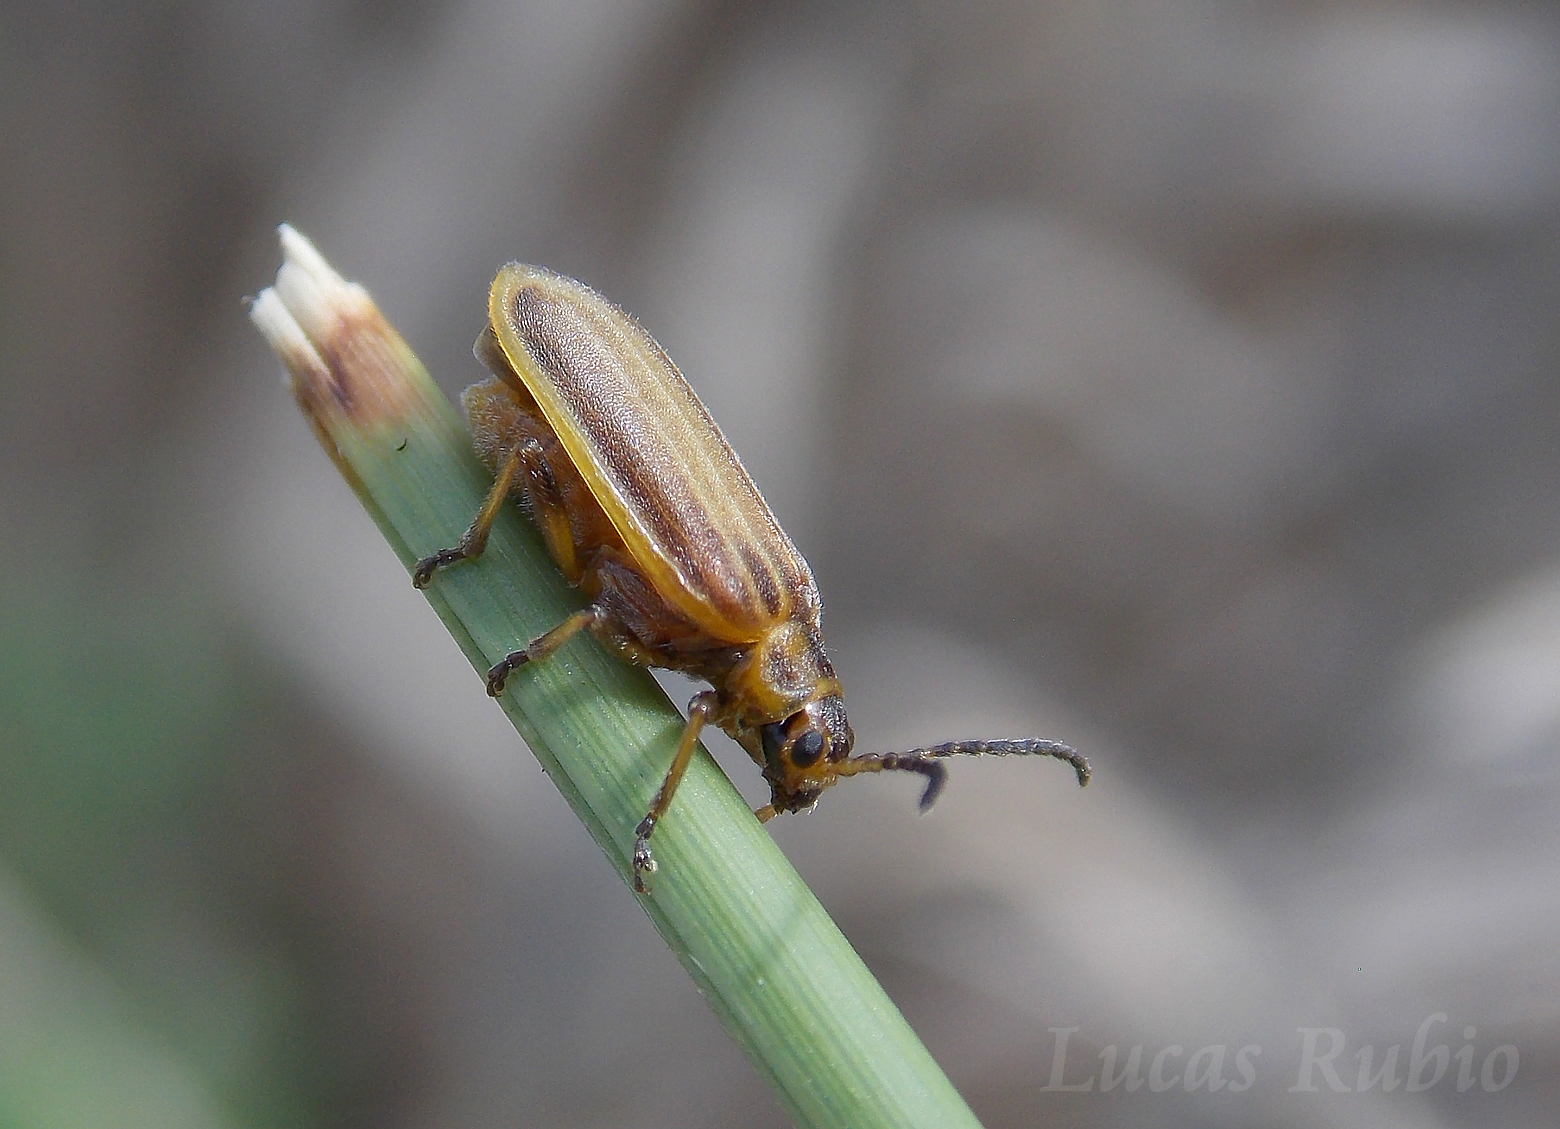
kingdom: Animalia
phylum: Arthropoda
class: Insecta
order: Coleoptera
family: Chrysomelidae
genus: Neolochmaea
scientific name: Neolochmaea
